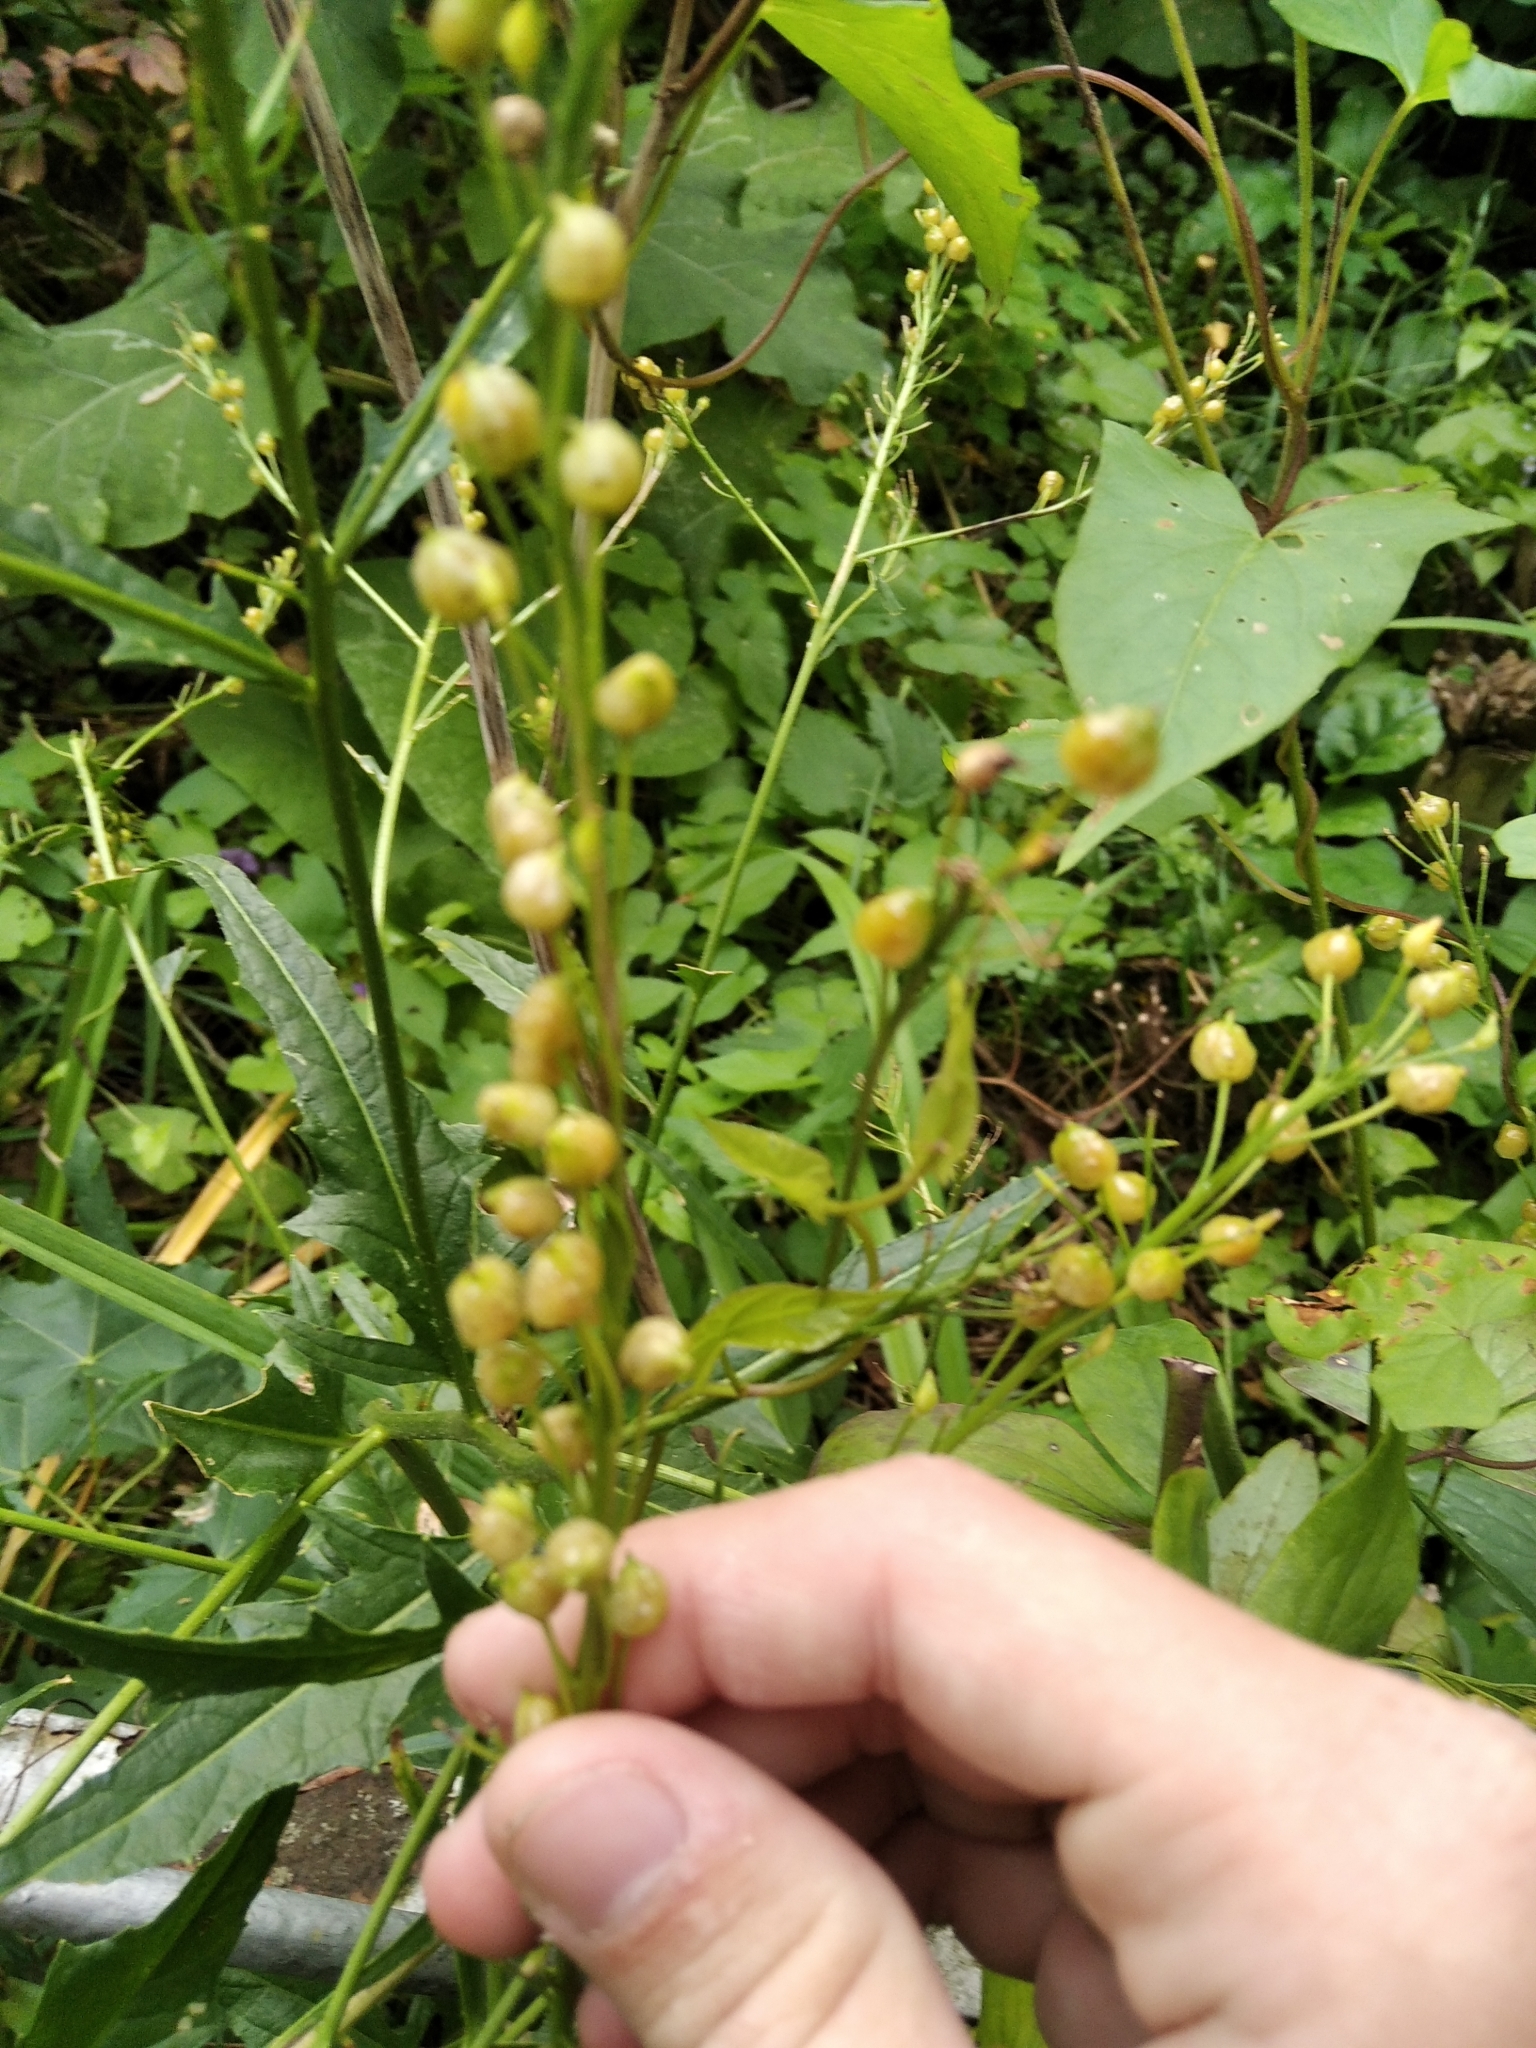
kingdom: Plantae
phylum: Tracheophyta
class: Magnoliopsida
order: Brassicales
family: Brassicaceae
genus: Bunias
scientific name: Bunias orientalis
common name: Warty-cabbage
